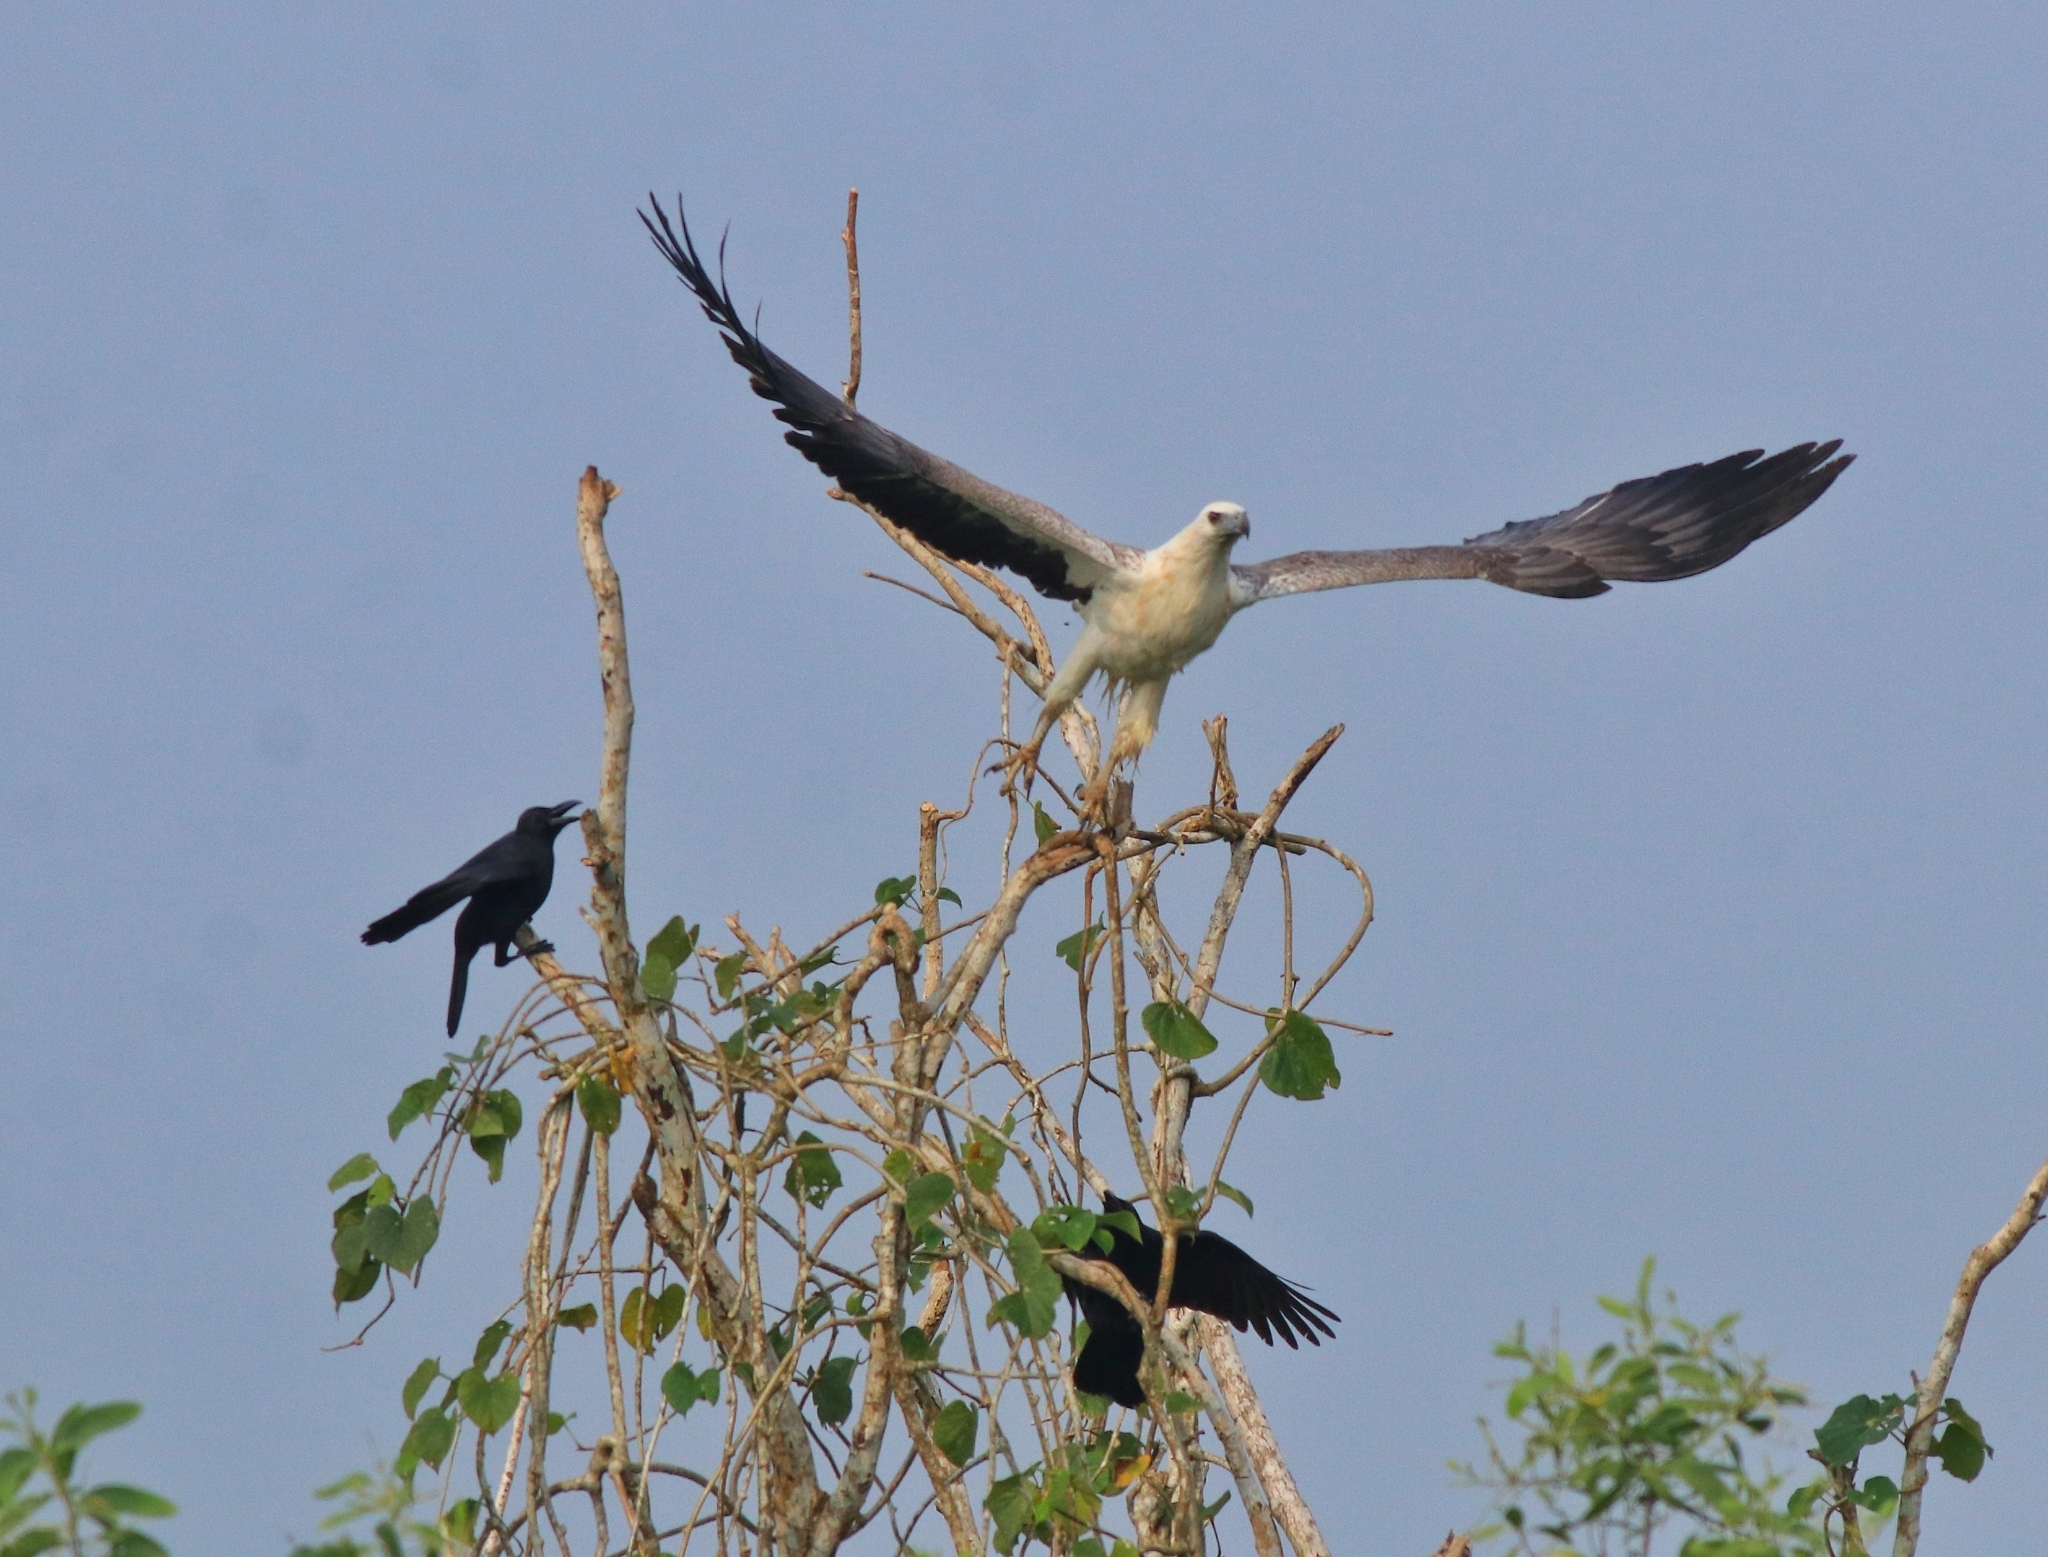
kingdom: Animalia
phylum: Chordata
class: Aves
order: Passeriformes
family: Corvidae
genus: Corvus
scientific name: Corvus macrorhynchos
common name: Large-billed crow
